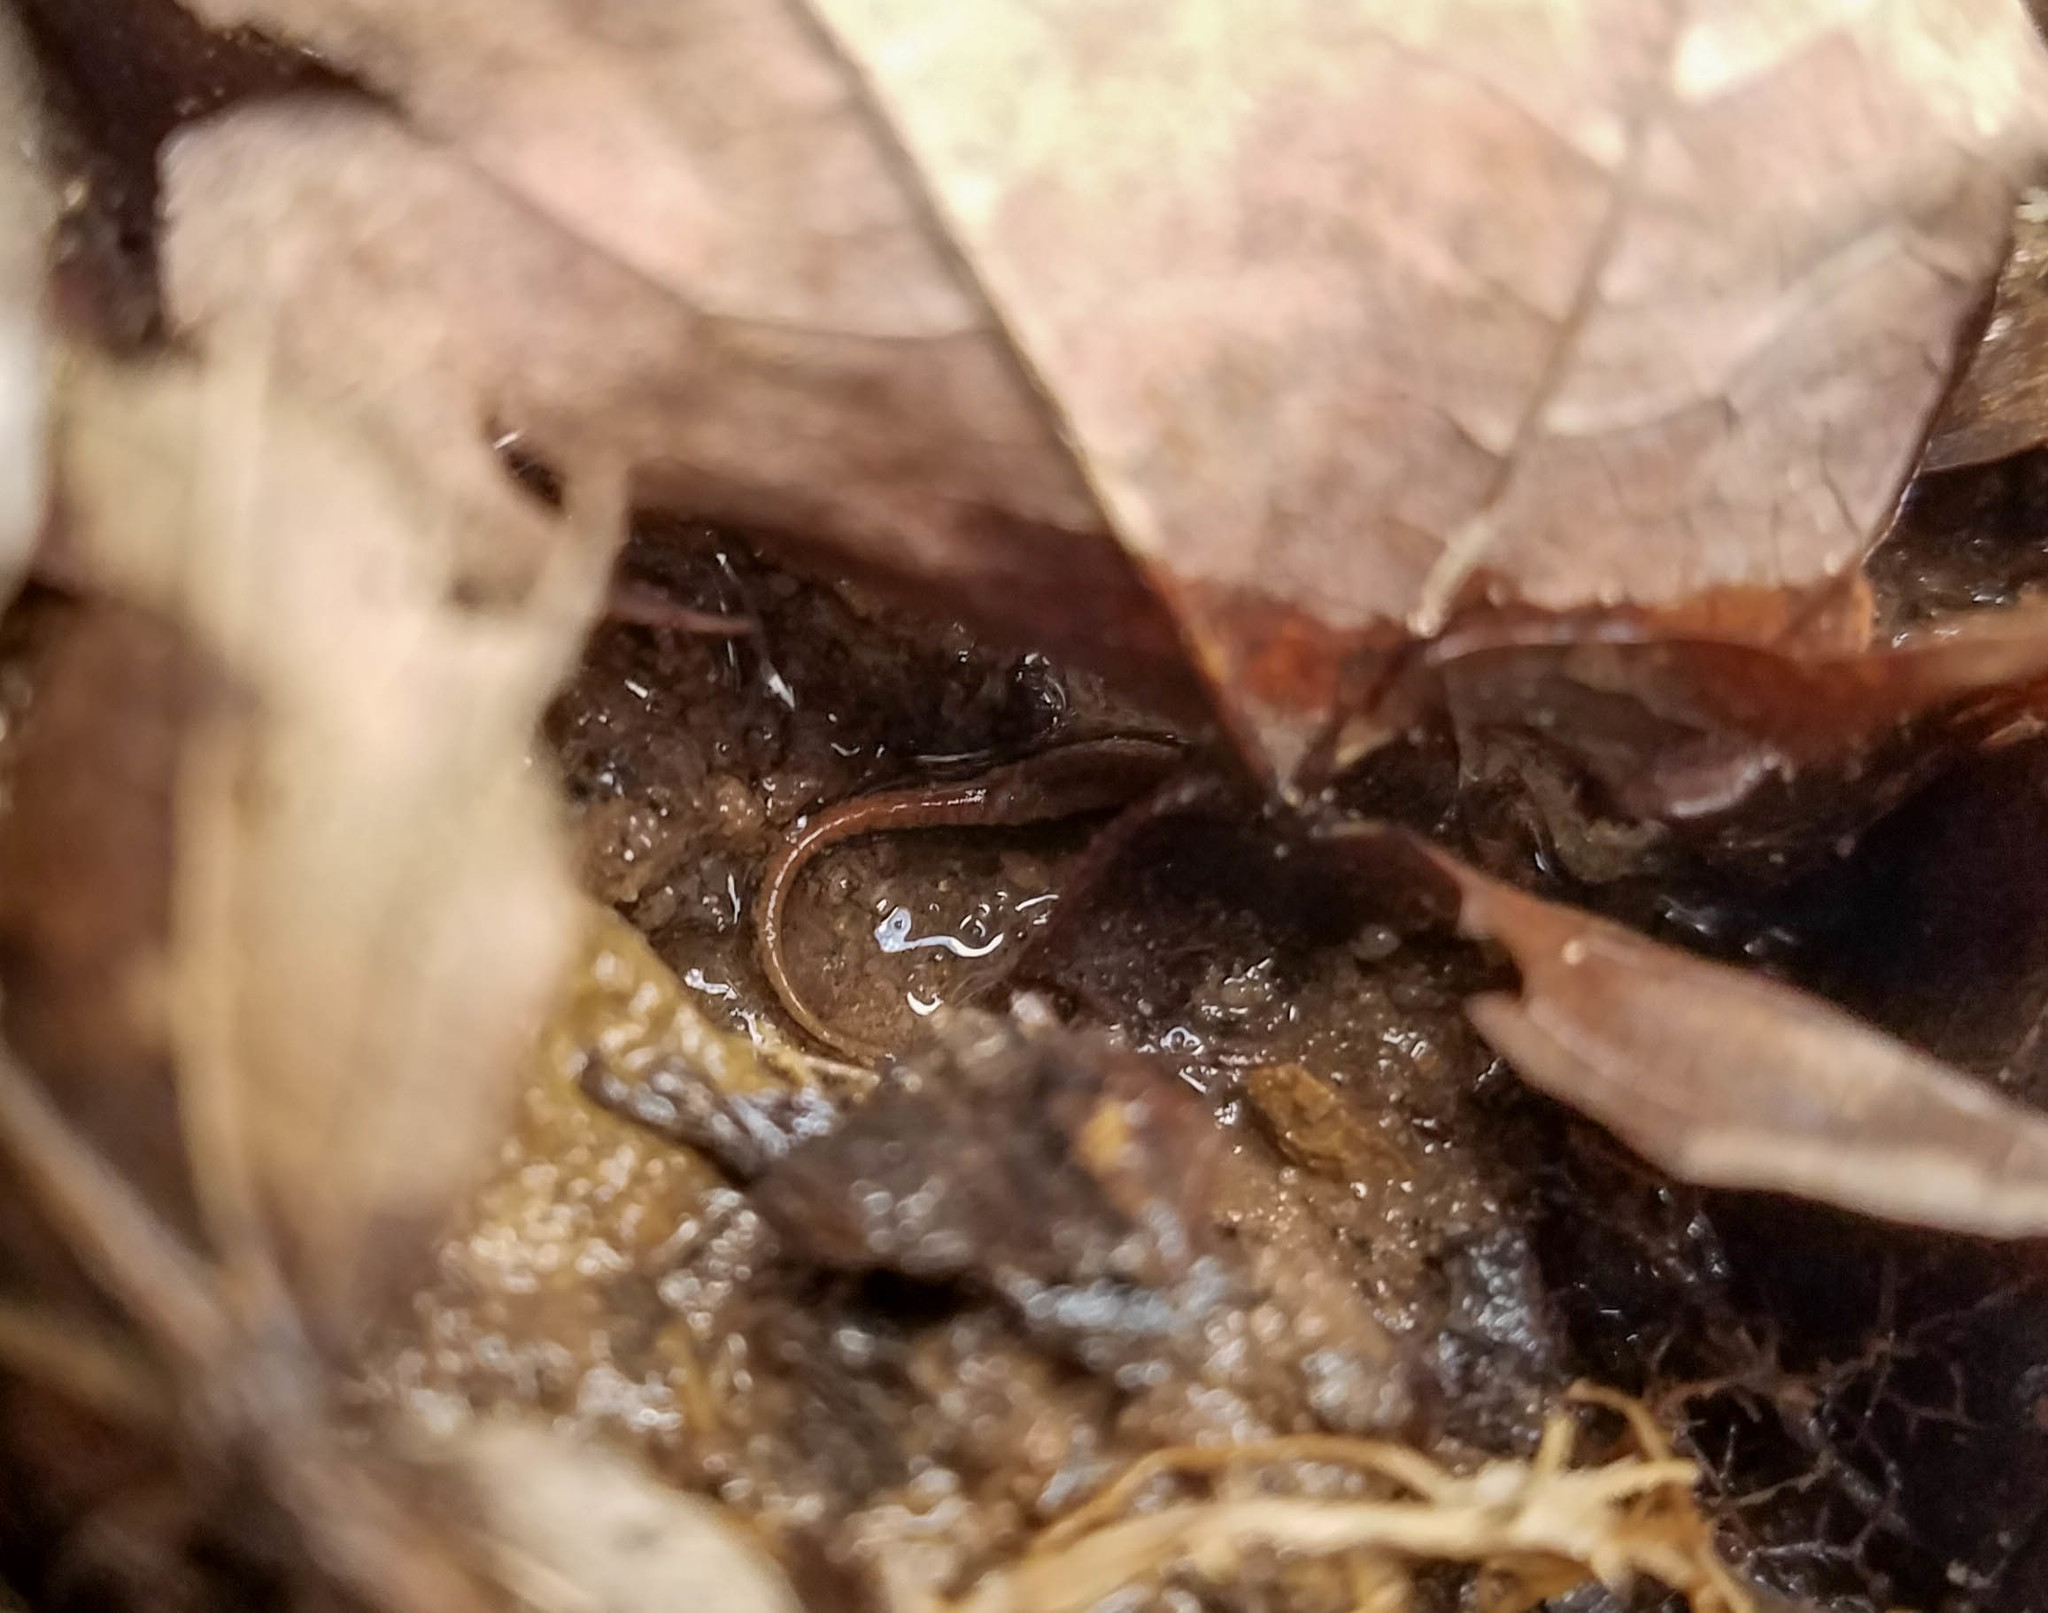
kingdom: Animalia
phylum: Chordata
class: Amphibia
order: Caudata
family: Plethodontidae
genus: Desmognathus
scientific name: Desmognathus ochrophaeus
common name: Allegheny mountain dusky salamander
